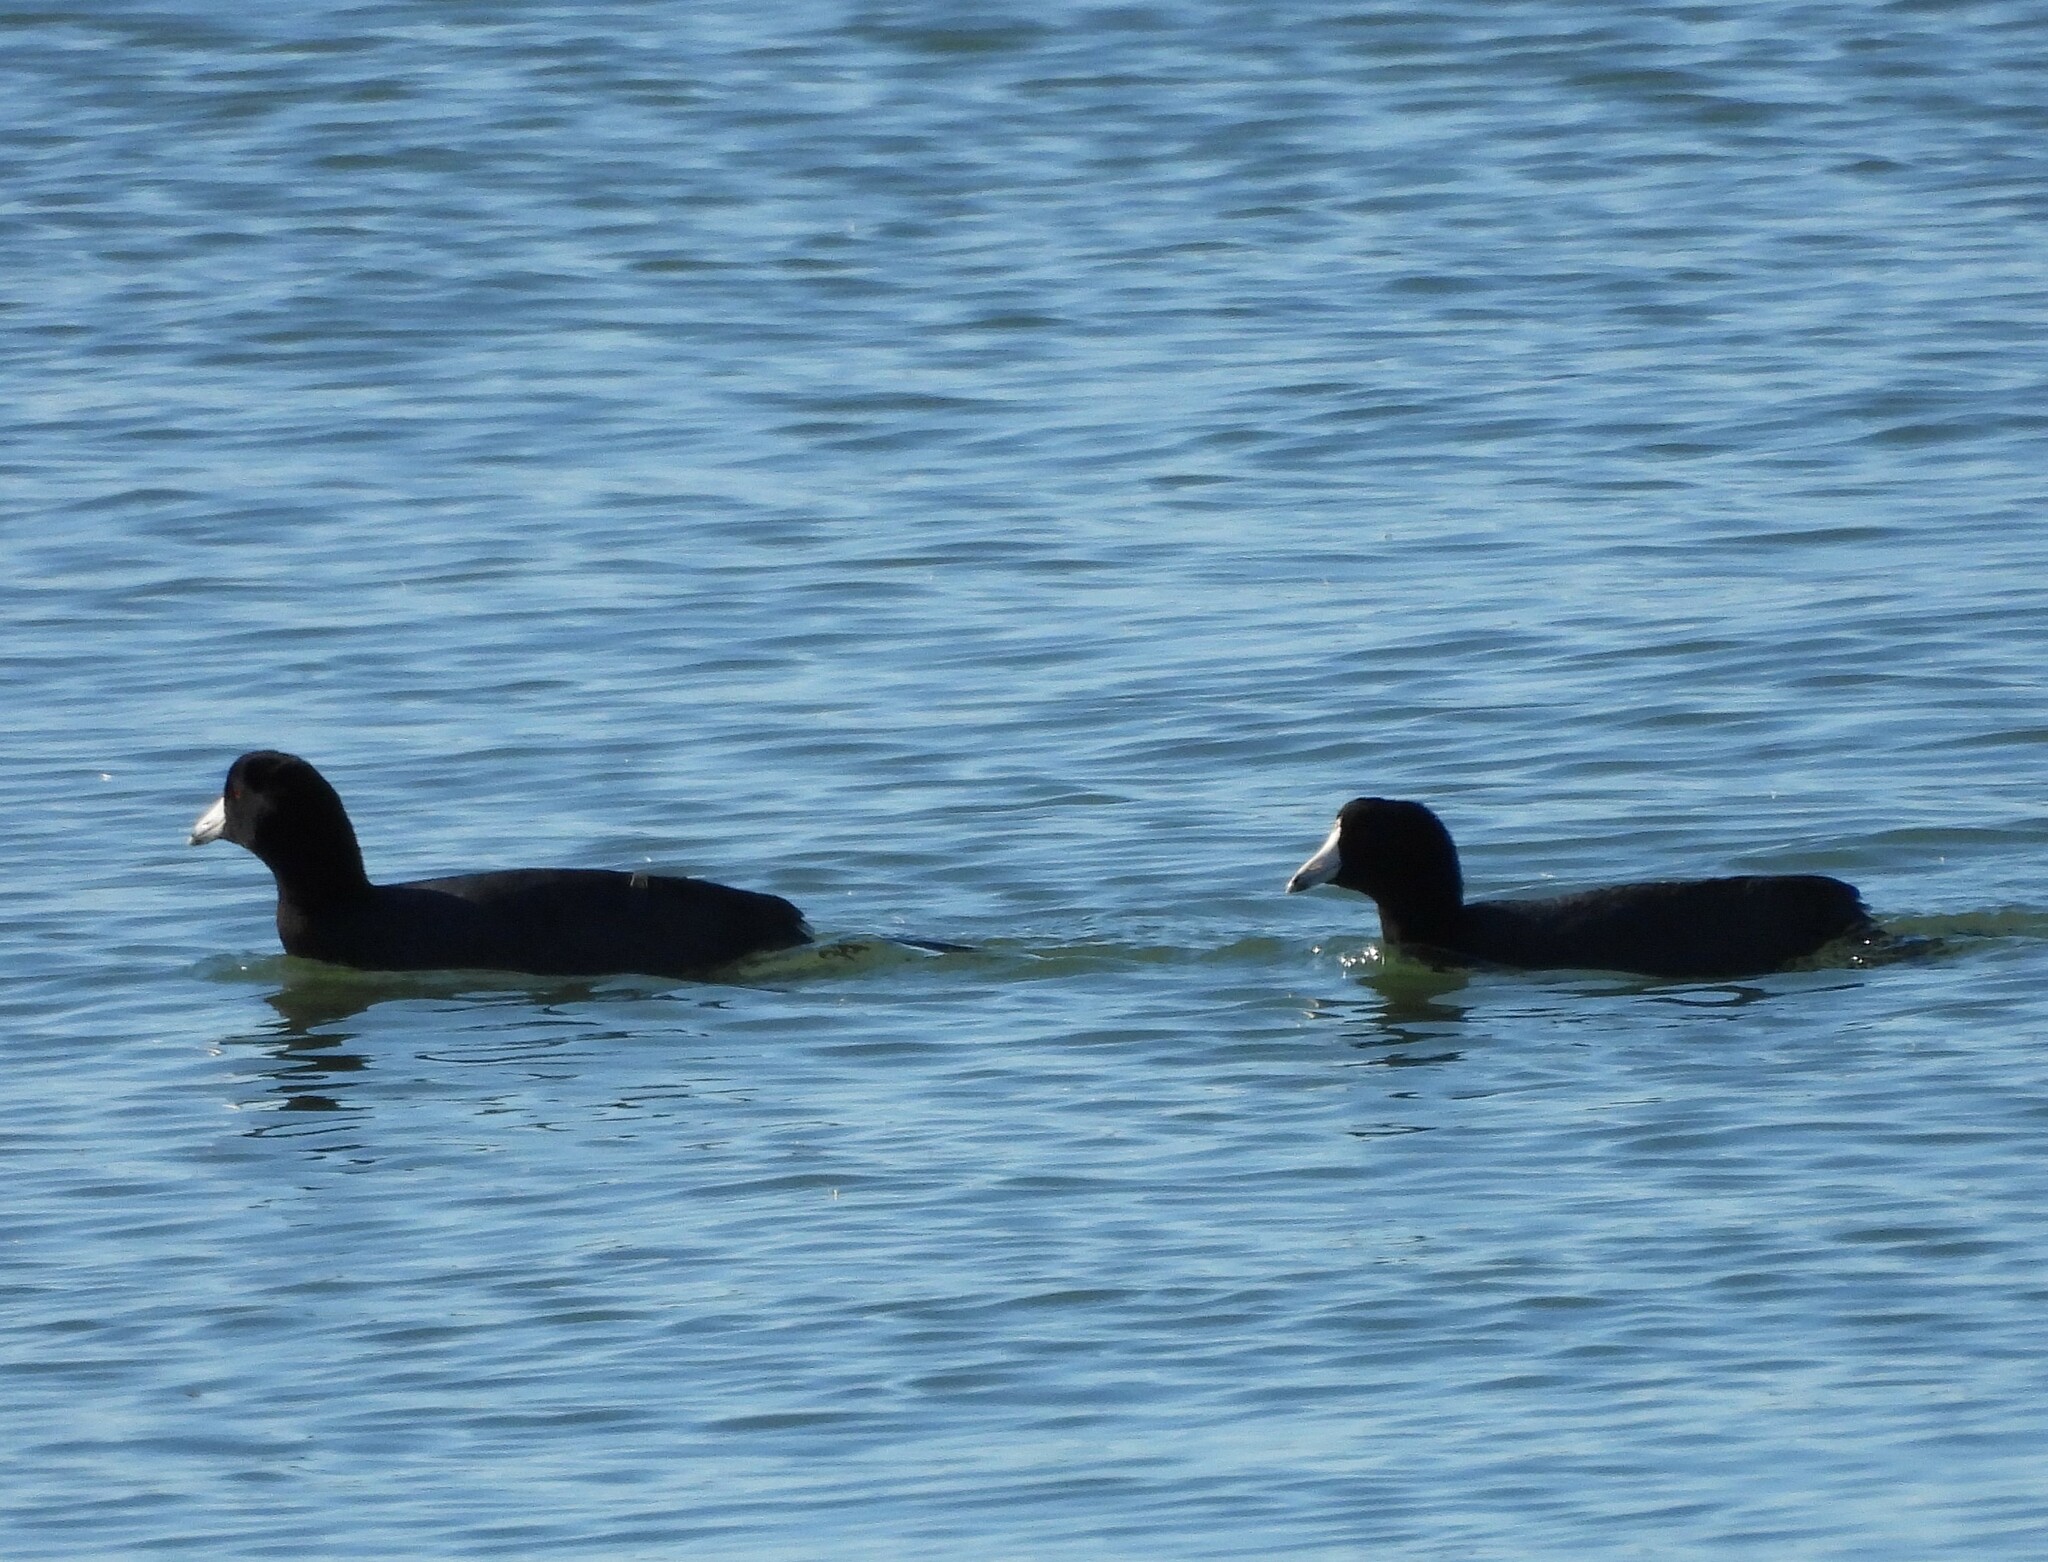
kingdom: Animalia
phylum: Chordata
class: Aves
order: Gruiformes
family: Rallidae
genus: Fulica
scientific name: Fulica americana
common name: American coot
